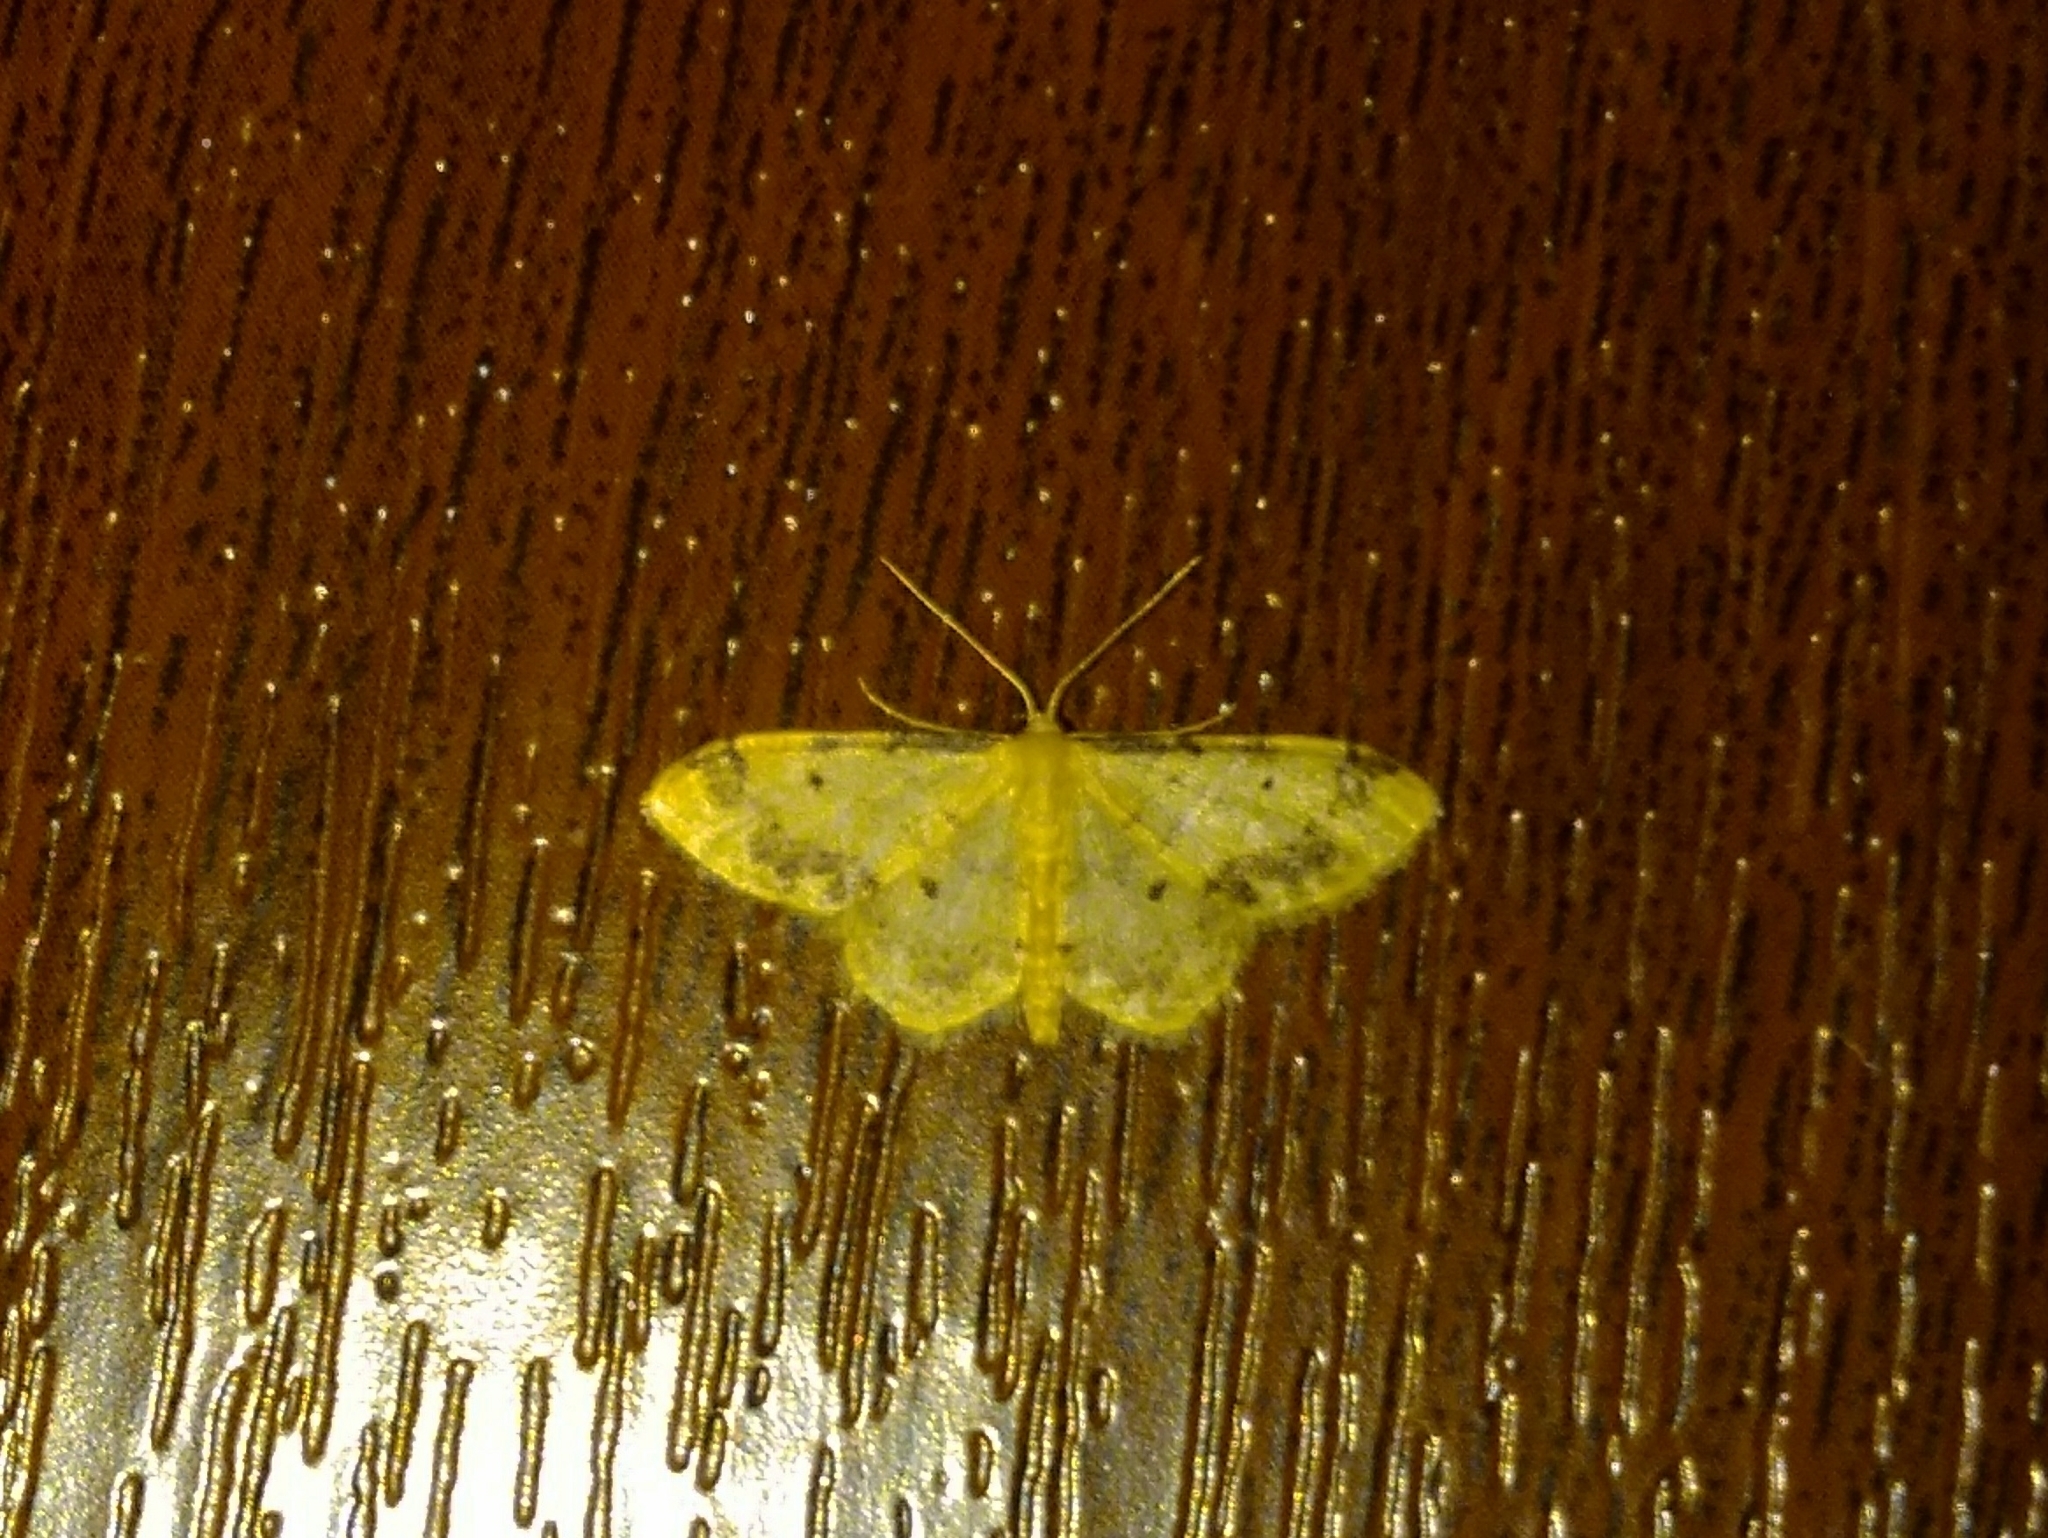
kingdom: Animalia
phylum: Arthropoda
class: Insecta
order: Lepidoptera
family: Geometridae
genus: Idaea
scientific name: Idaea trigeminata
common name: Treble brown spot
